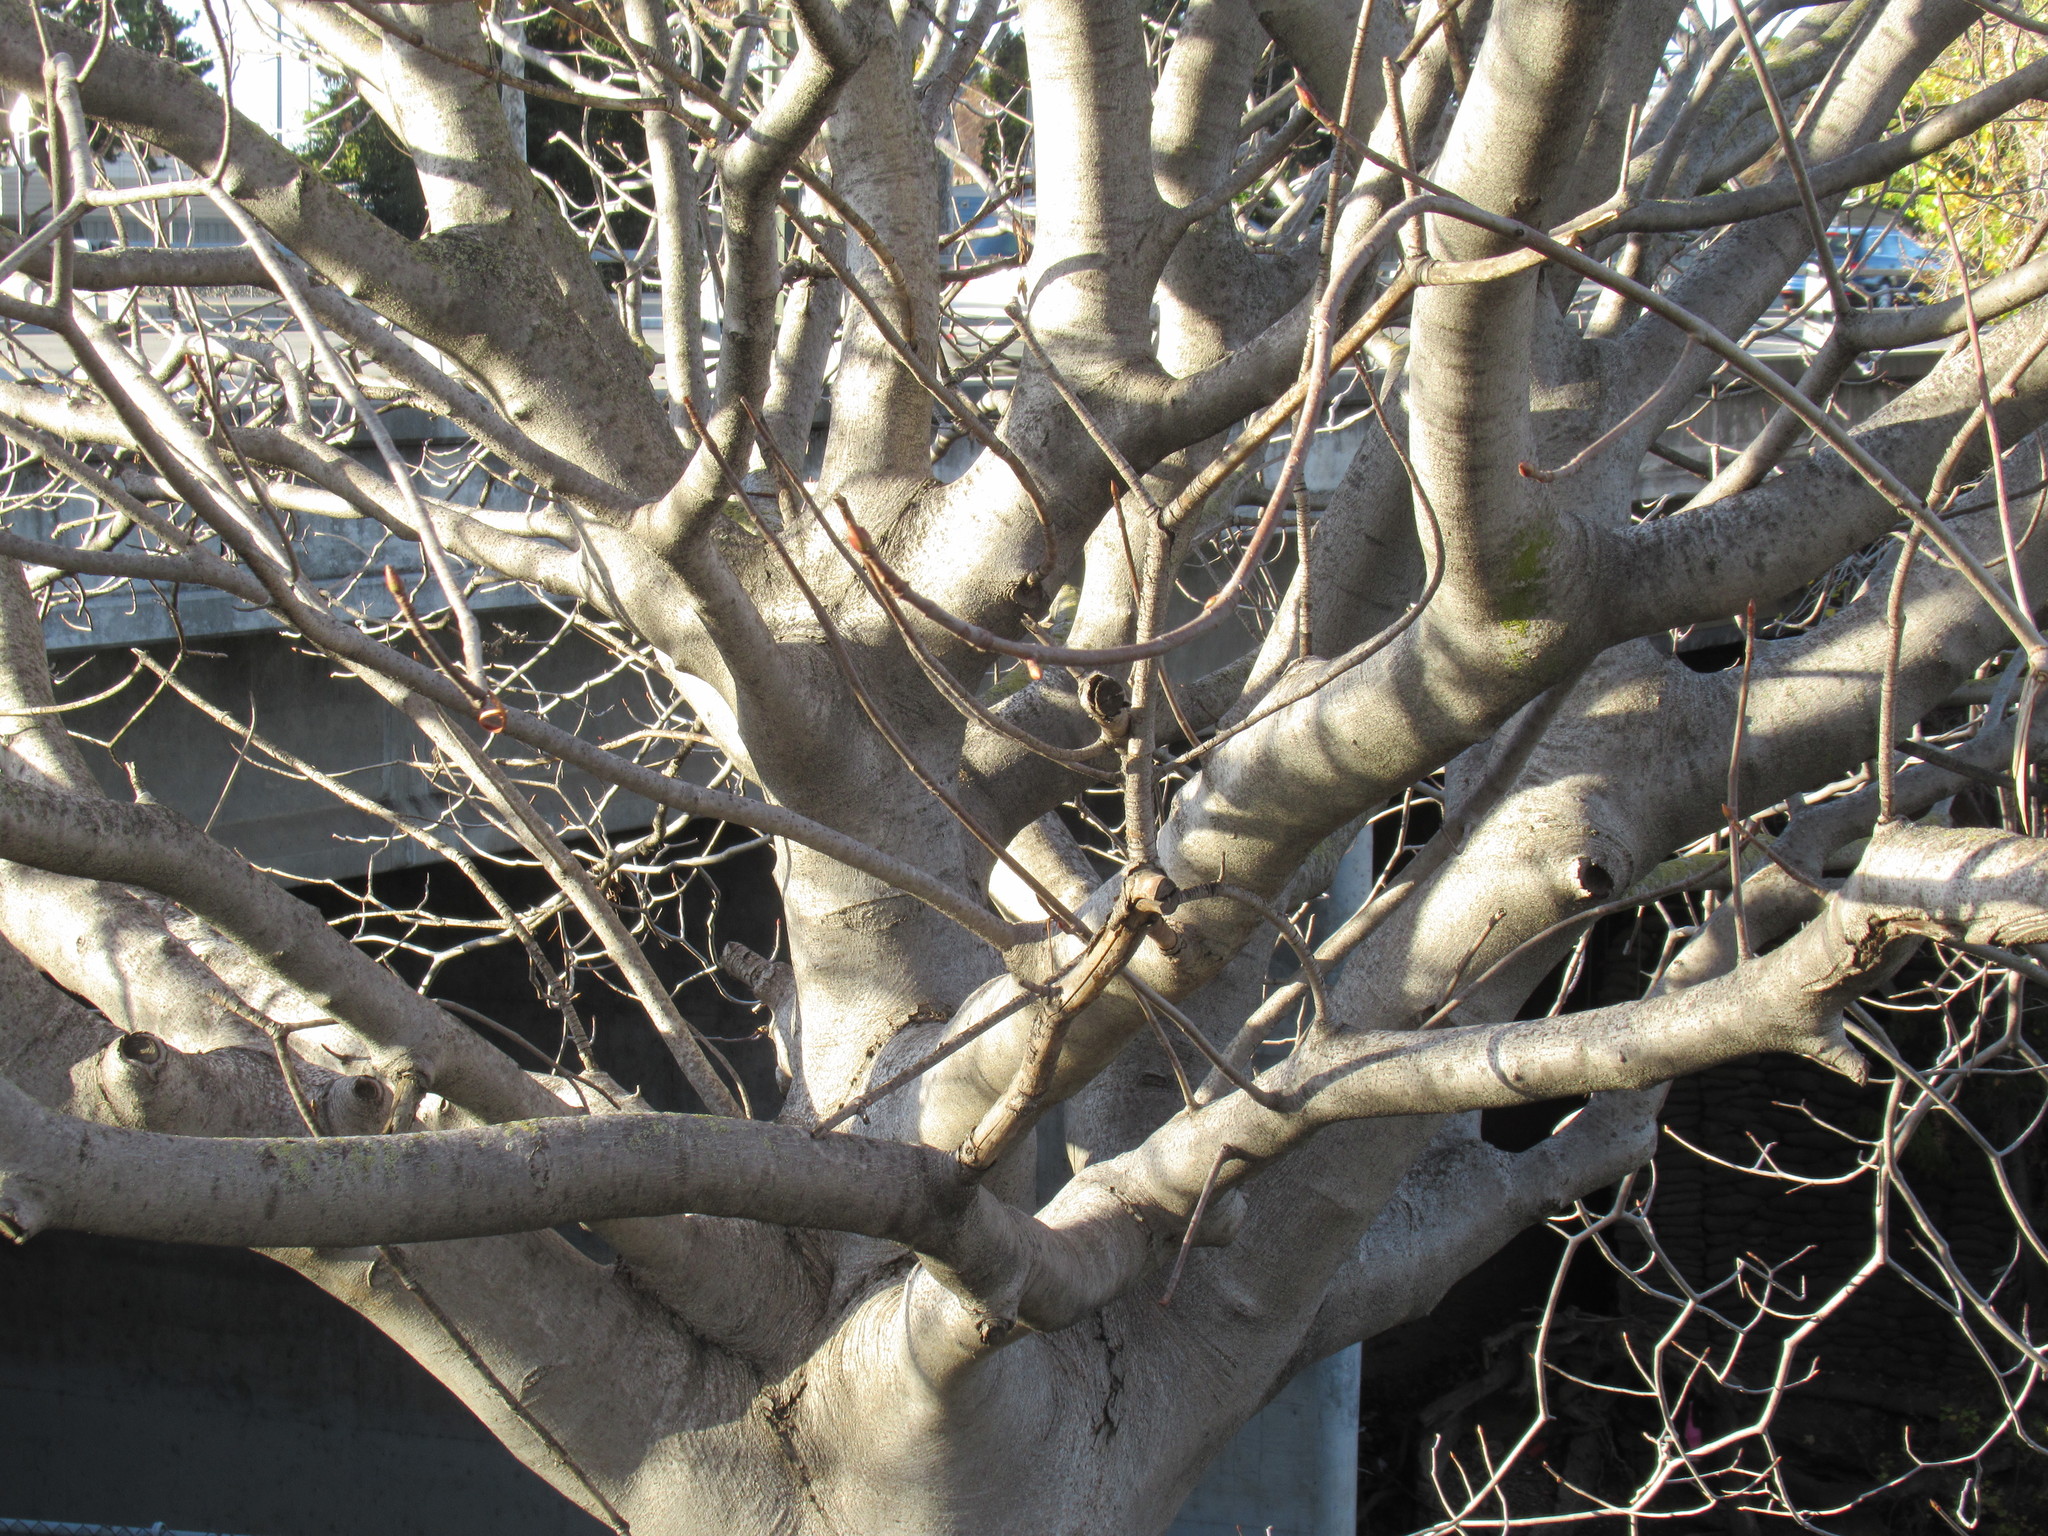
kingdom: Plantae
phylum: Tracheophyta
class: Magnoliopsida
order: Sapindales
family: Sapindaceae
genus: Aesculus
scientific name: Aesculus californica
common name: California buckeye
